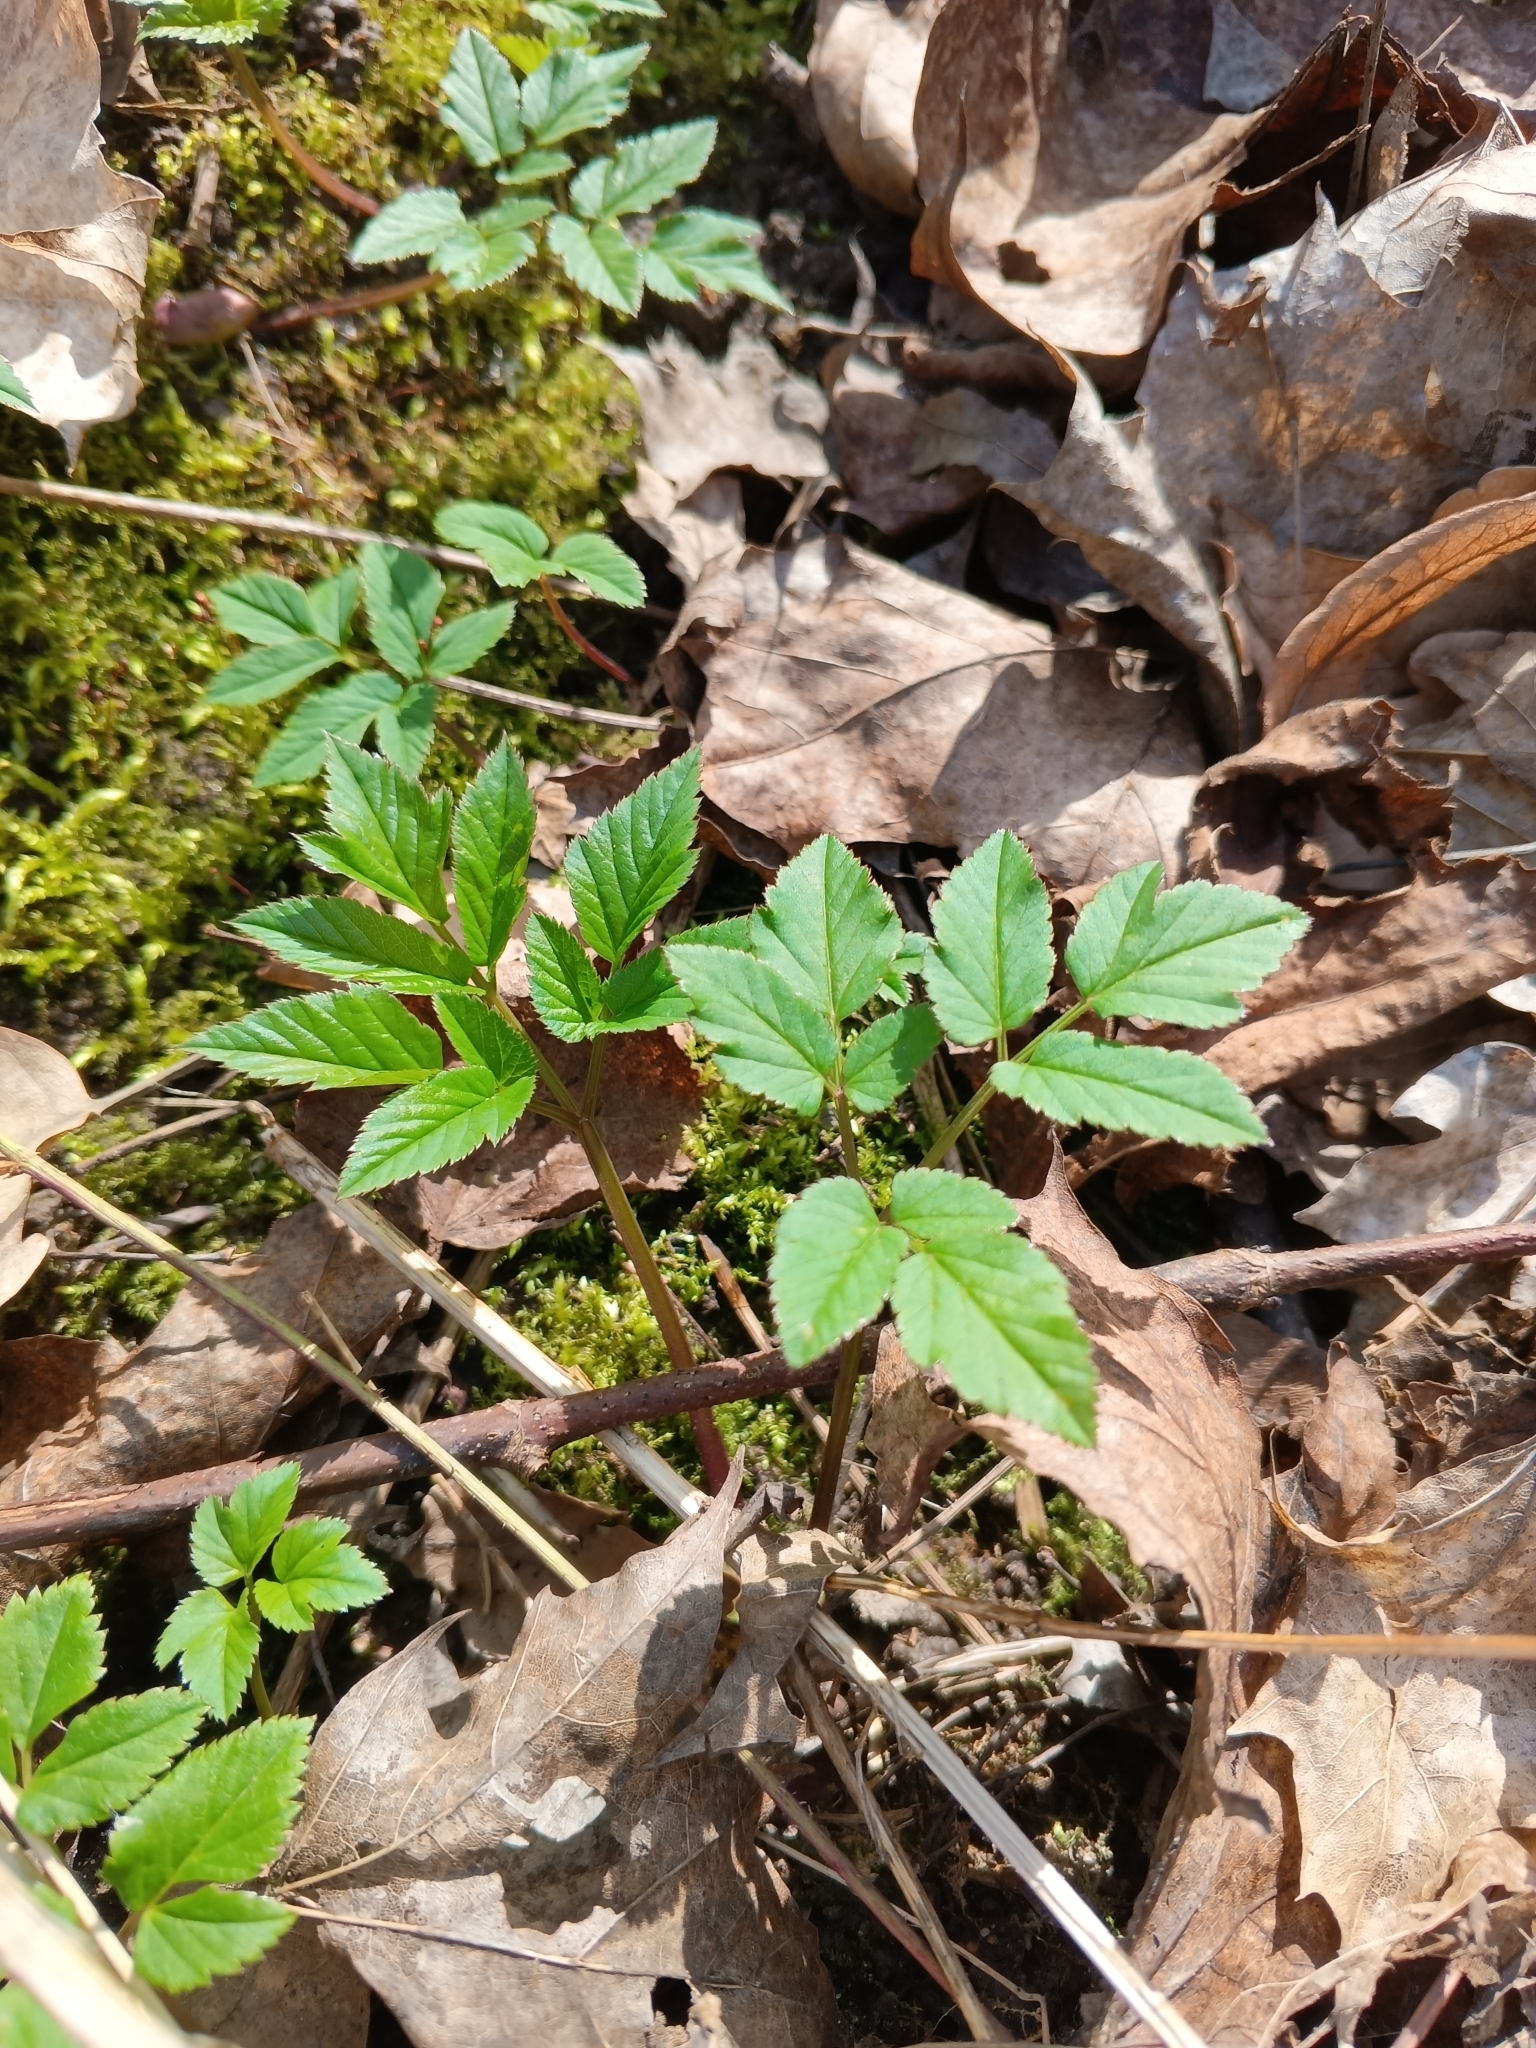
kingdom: Plantae
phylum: Tracheophyta
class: Magnoliopsida
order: Apiales
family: Apiaceae
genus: Aegopodium
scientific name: Aegopodium podagraria
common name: Ground-elder
